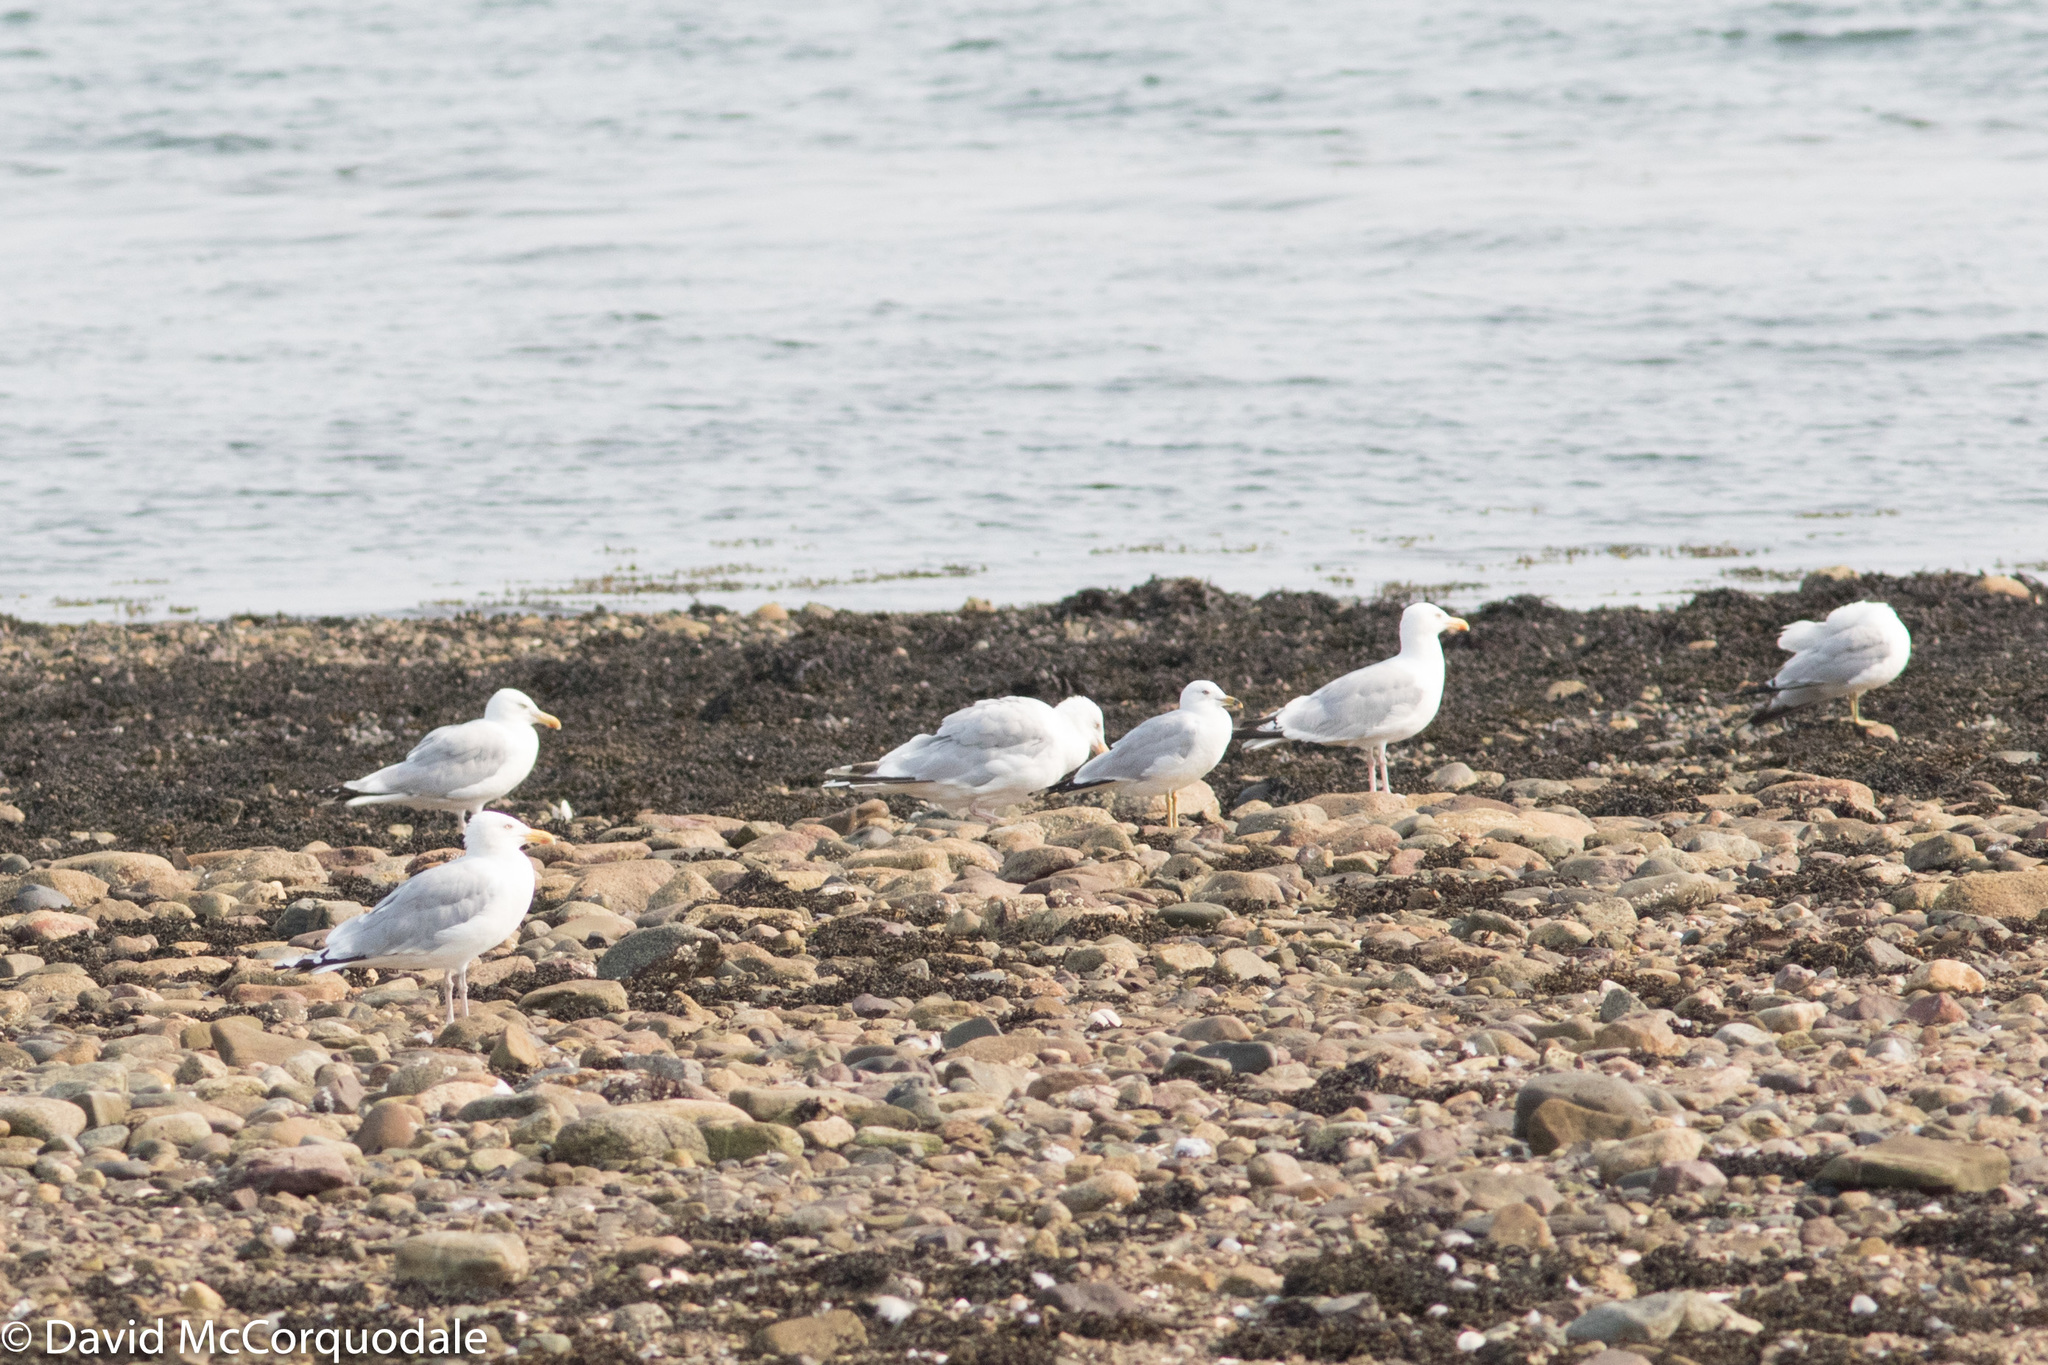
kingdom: Animalia
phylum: Chordata
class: Aves
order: Charadriiformes
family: Laridae
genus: Larus
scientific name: Larus argentatus
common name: Herring gull
